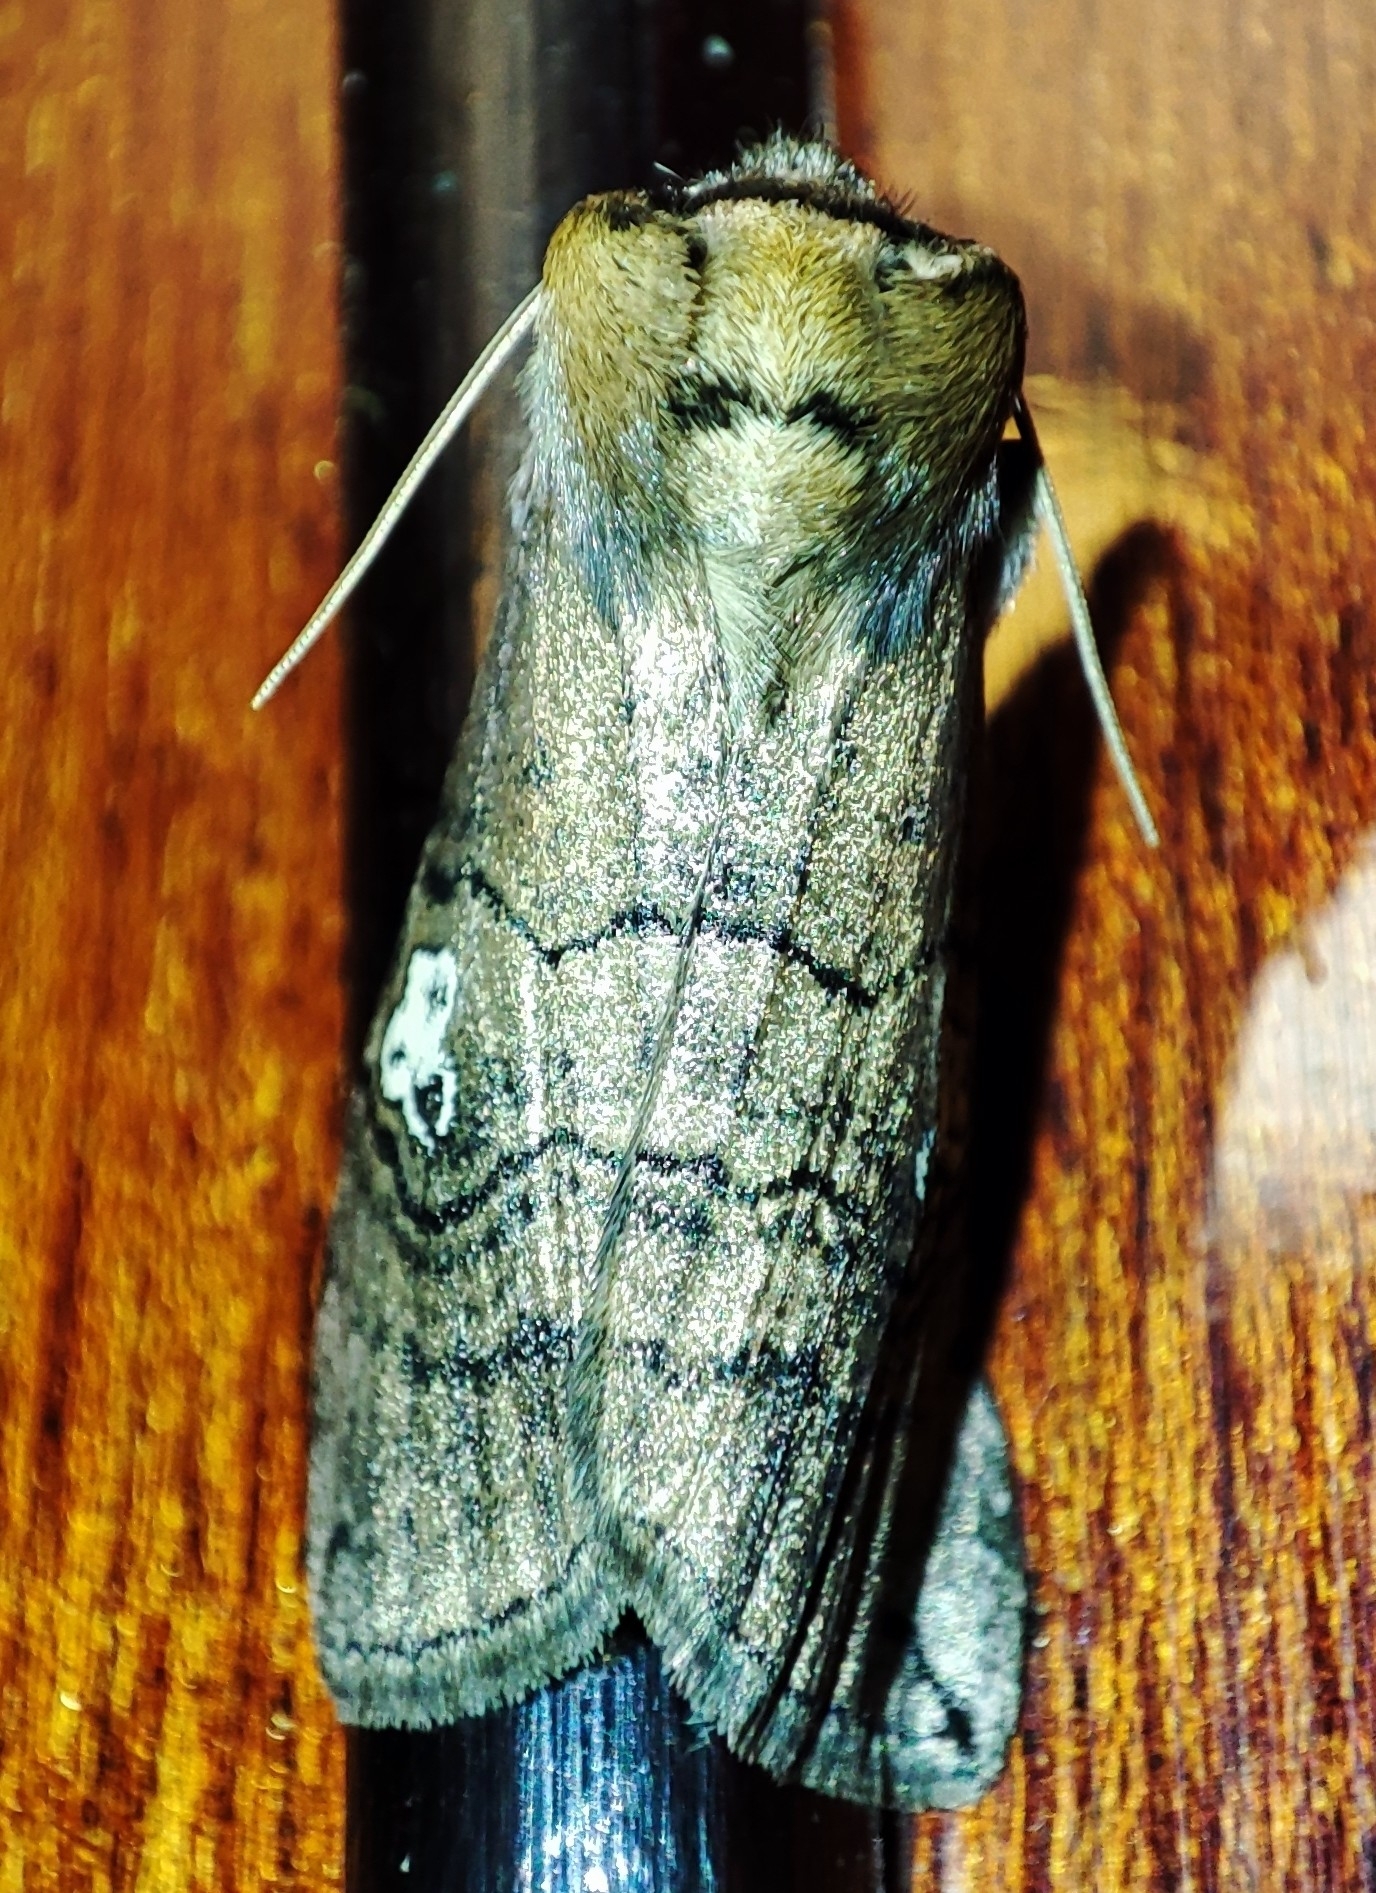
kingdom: Animalia
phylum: Arthropoda
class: Insecta
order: Lepidoptera
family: Drepanidae
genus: Tethea
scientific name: Tethea ocularis
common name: Figure of eighty
